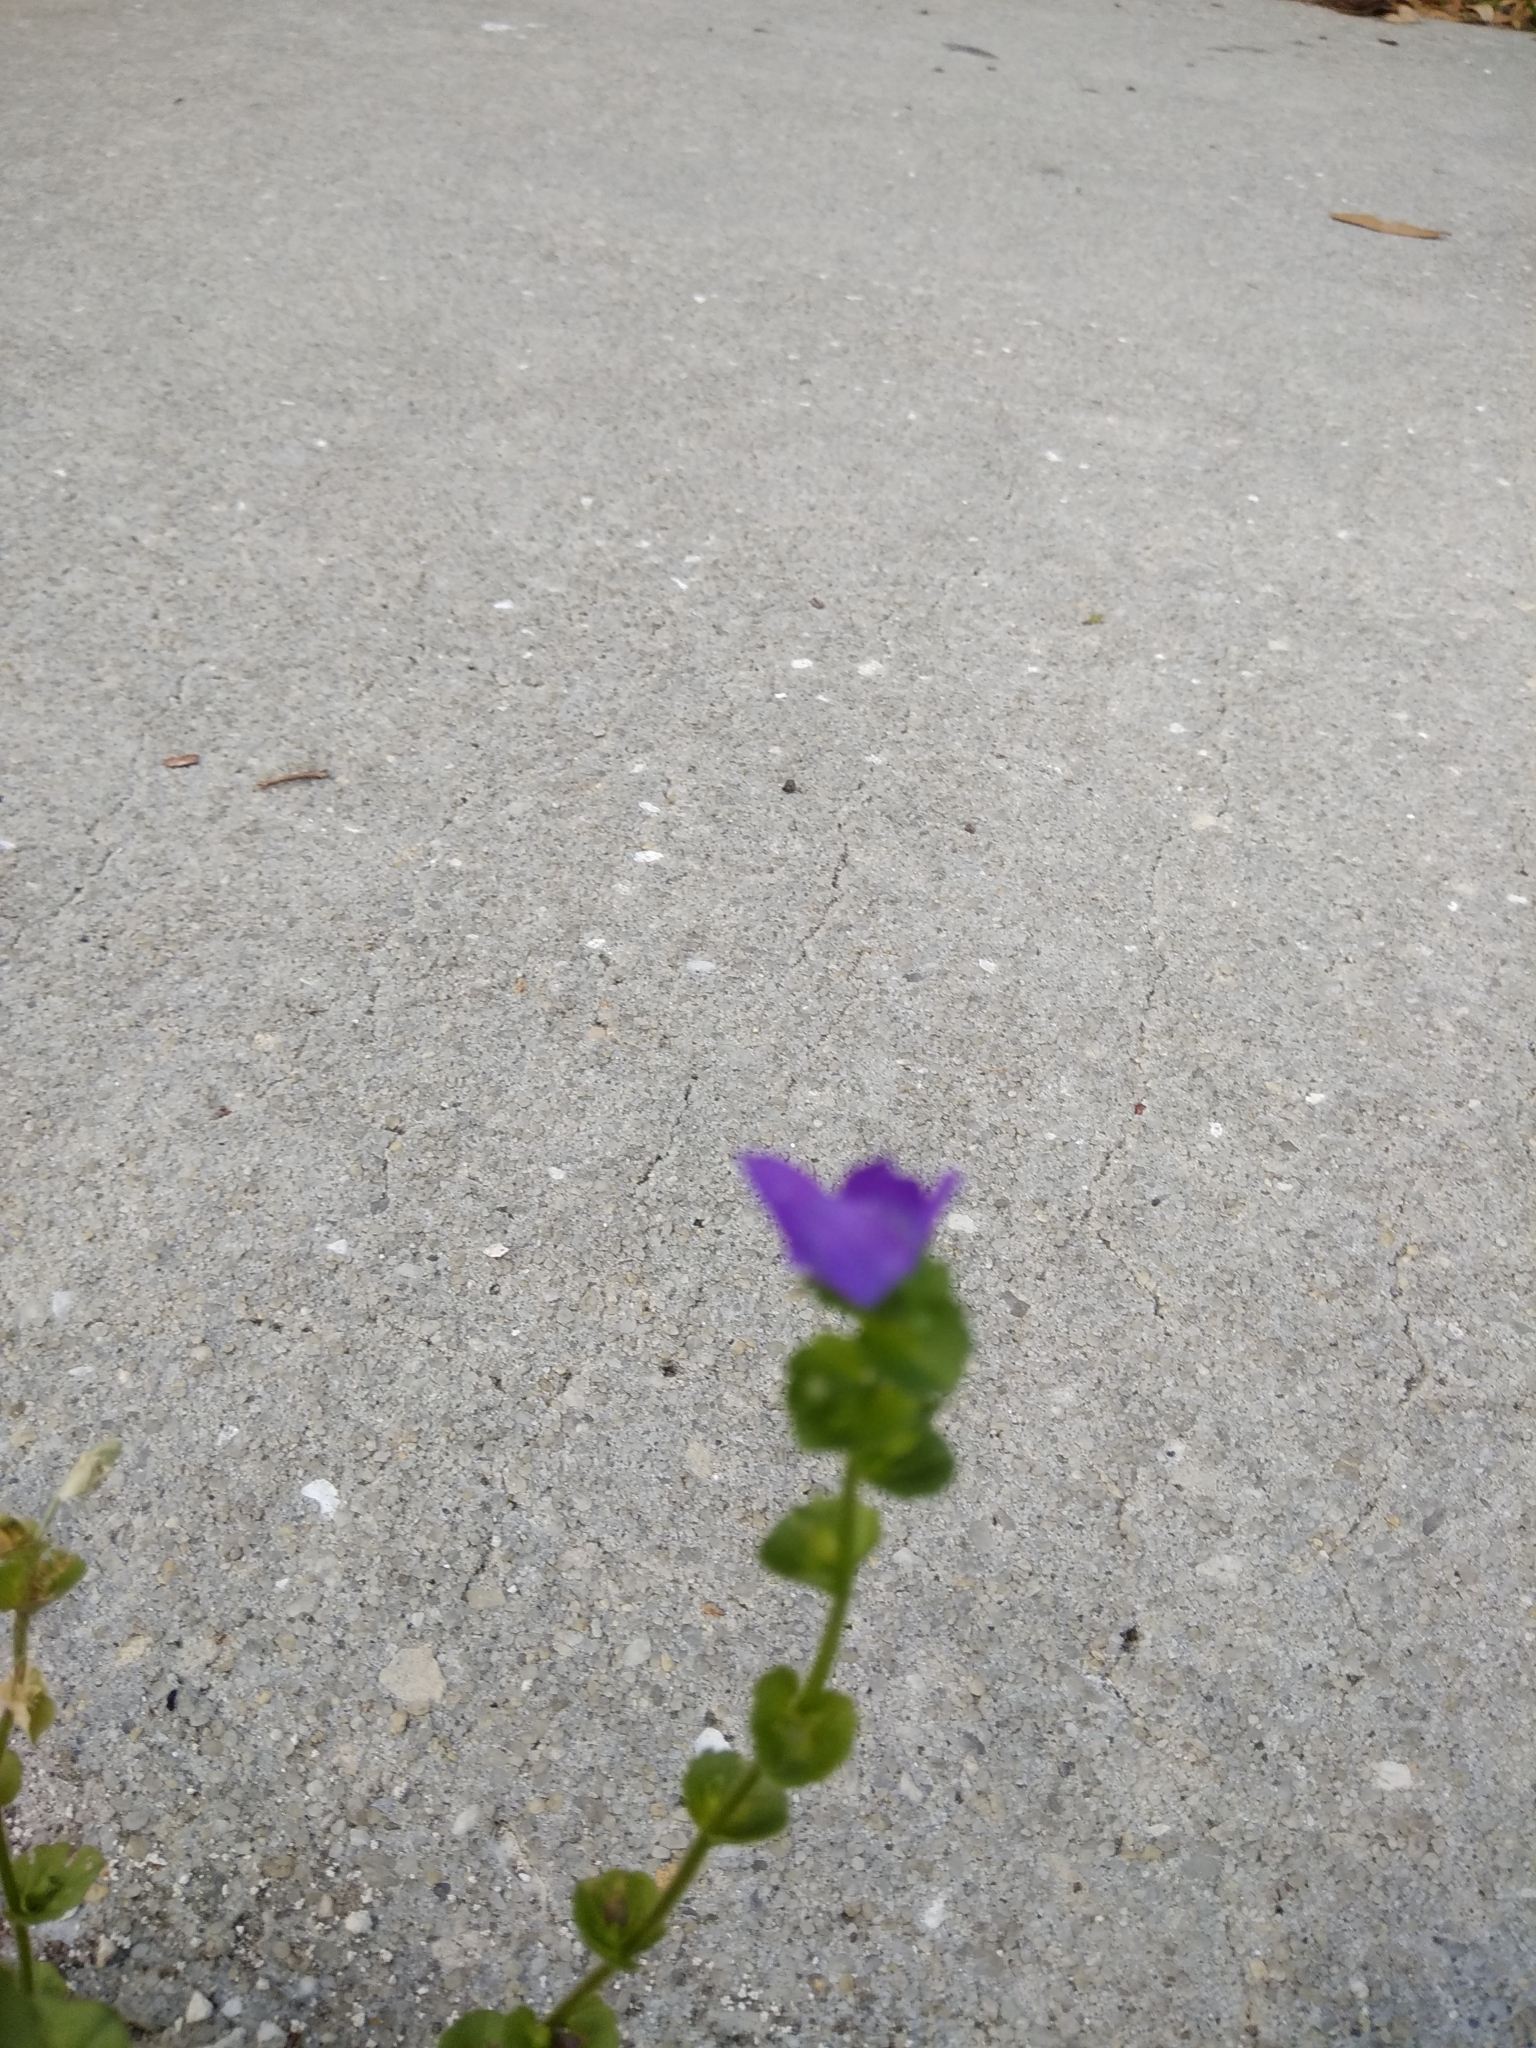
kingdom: Plantae
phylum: Tracheophyta
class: Magnoliopsida
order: Asterales
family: Campanulaceae
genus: Triodanis
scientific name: Triodanis perfoliata
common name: Clasping venus' looking-glass
